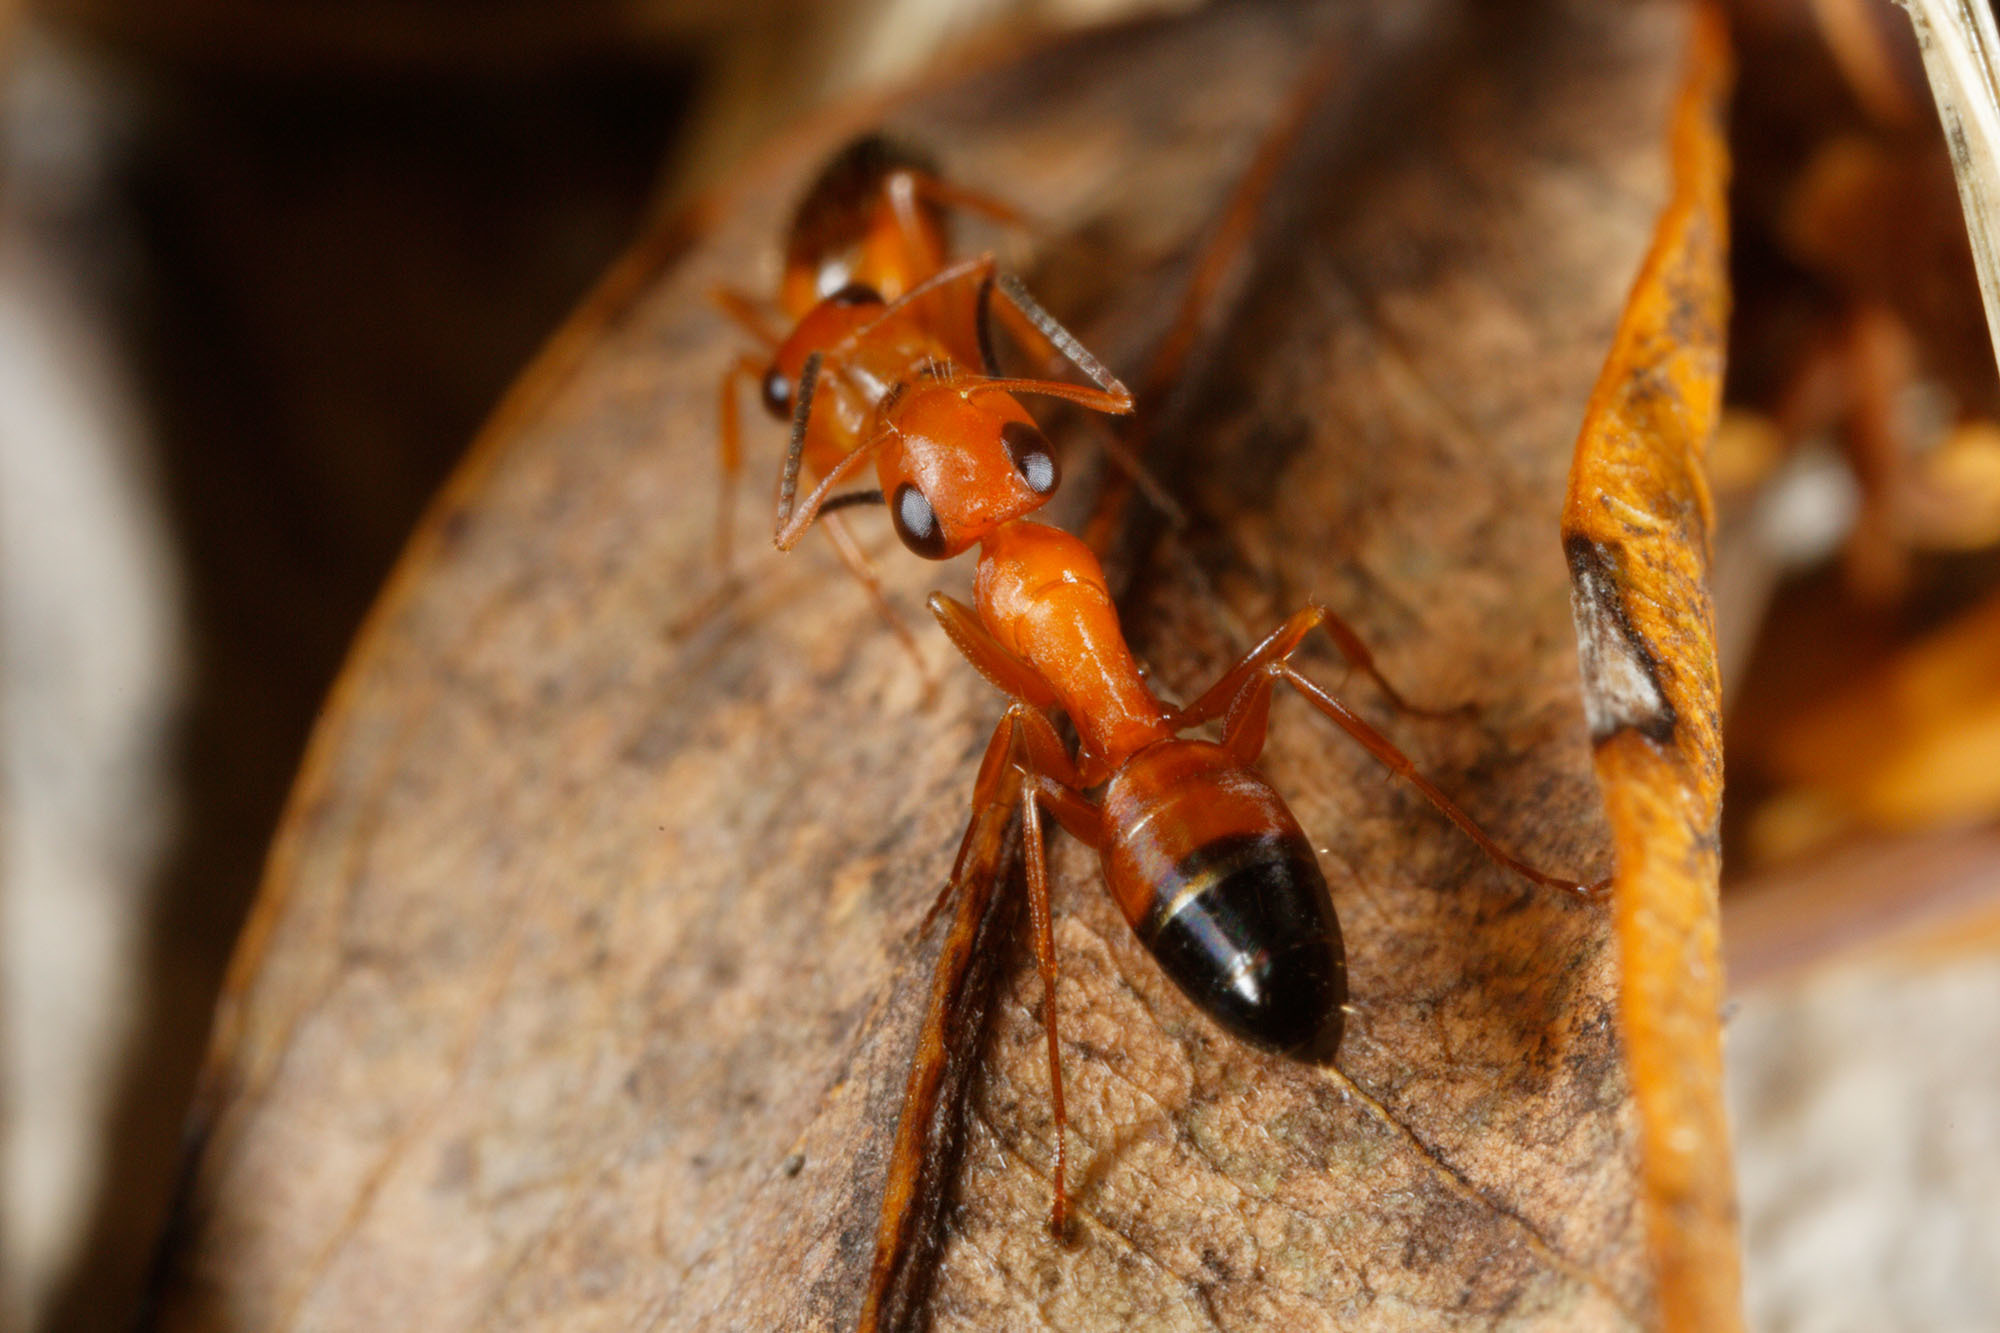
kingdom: Animalia
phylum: Arthropoda
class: Insecta
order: Hymenoptera
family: Formicidae
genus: Opisthopsis
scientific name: Opisthopsis haddoni
